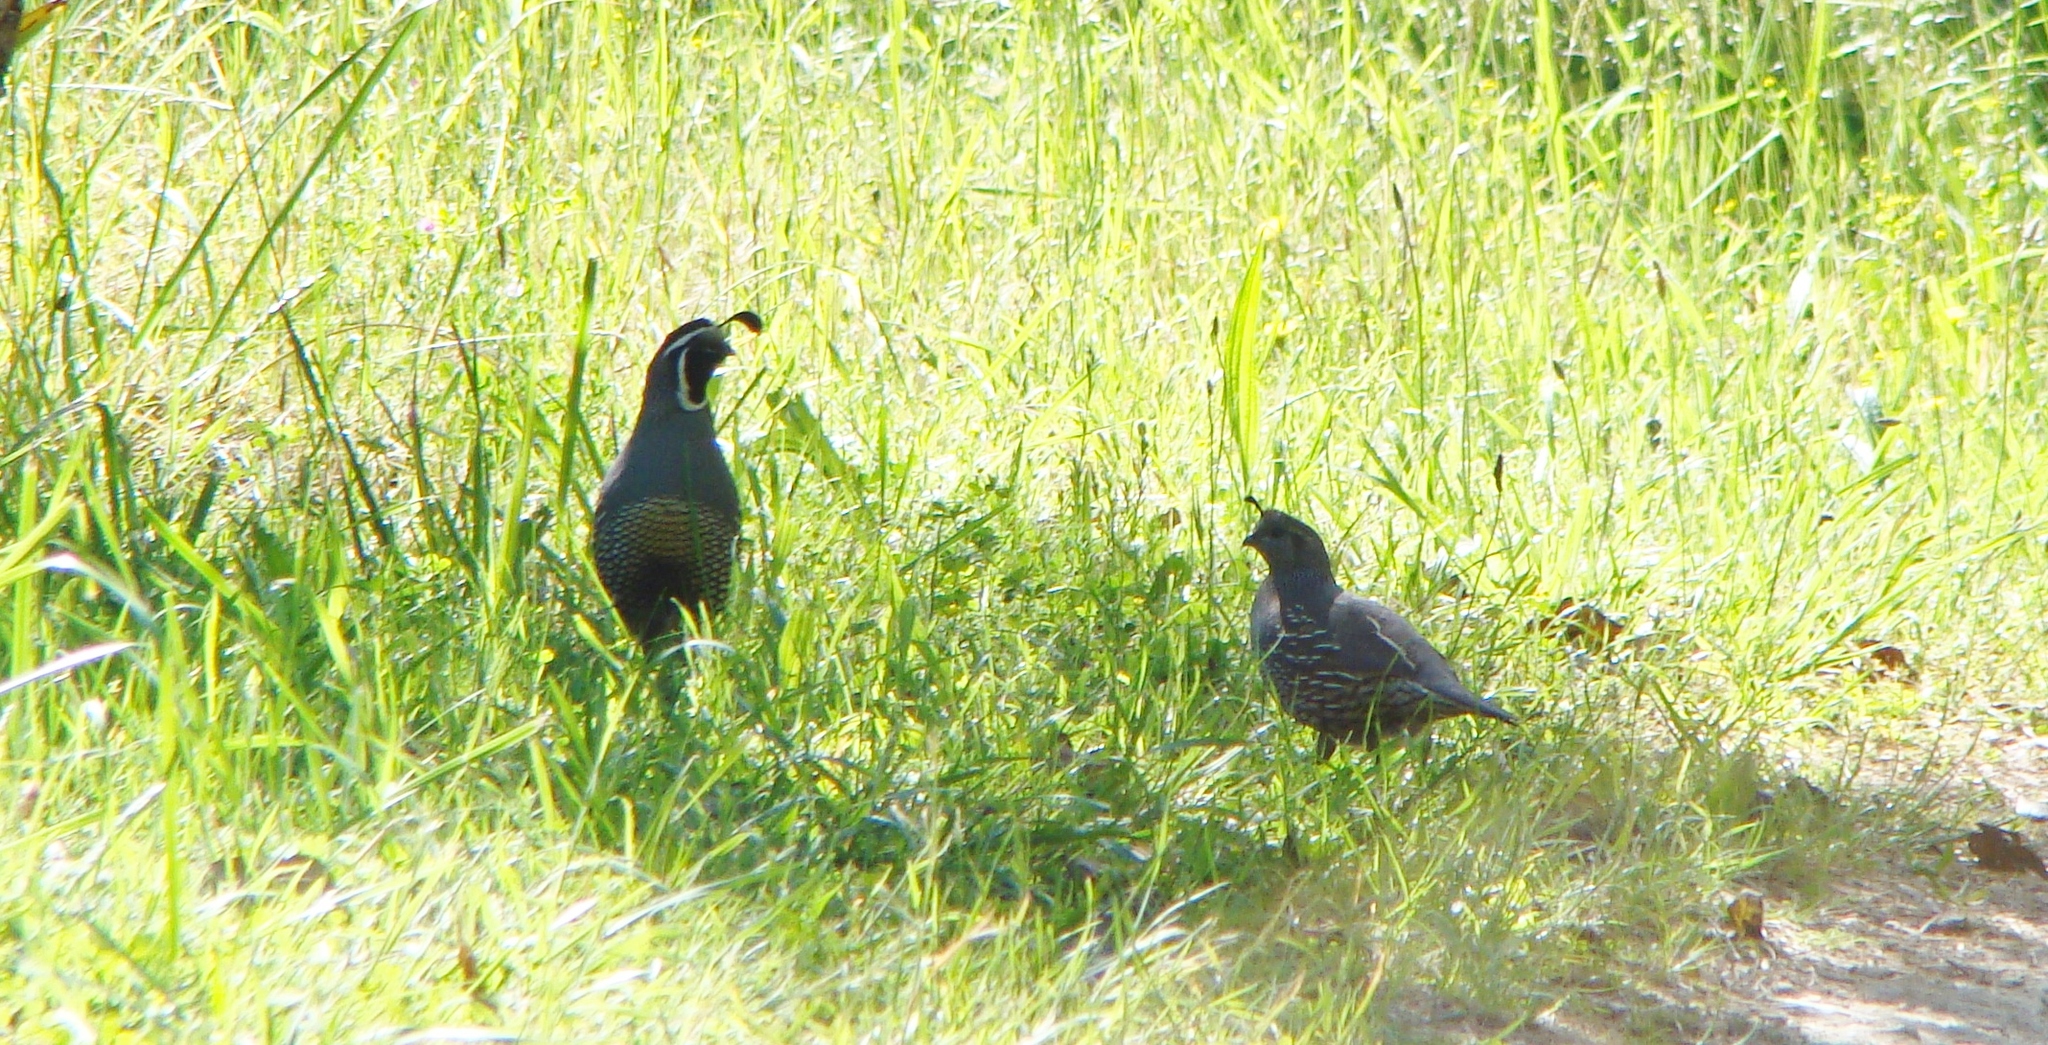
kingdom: Animalia
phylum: Chordata
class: Aves
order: Galliformes
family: Odontophoridae
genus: Callipepla
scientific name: Callipepla californica
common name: California quail
